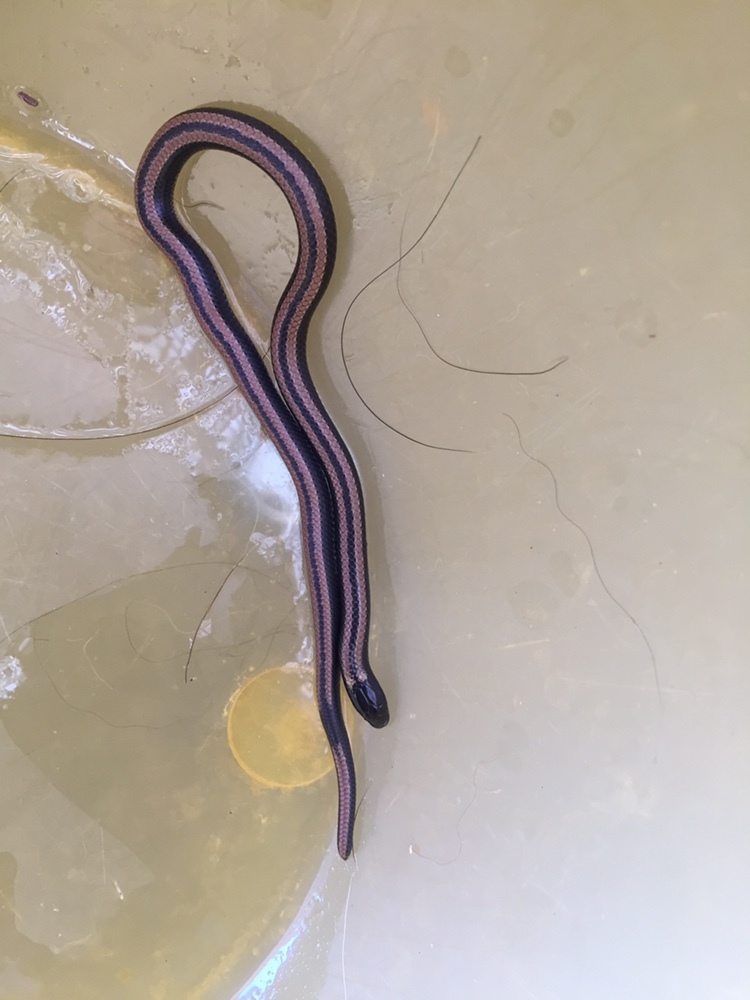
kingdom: Animalia
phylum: Chordata
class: Squamata
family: Colubridae
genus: Phalotris
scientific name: Phalotris lemniscatus
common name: Dumeril's diadem snake
